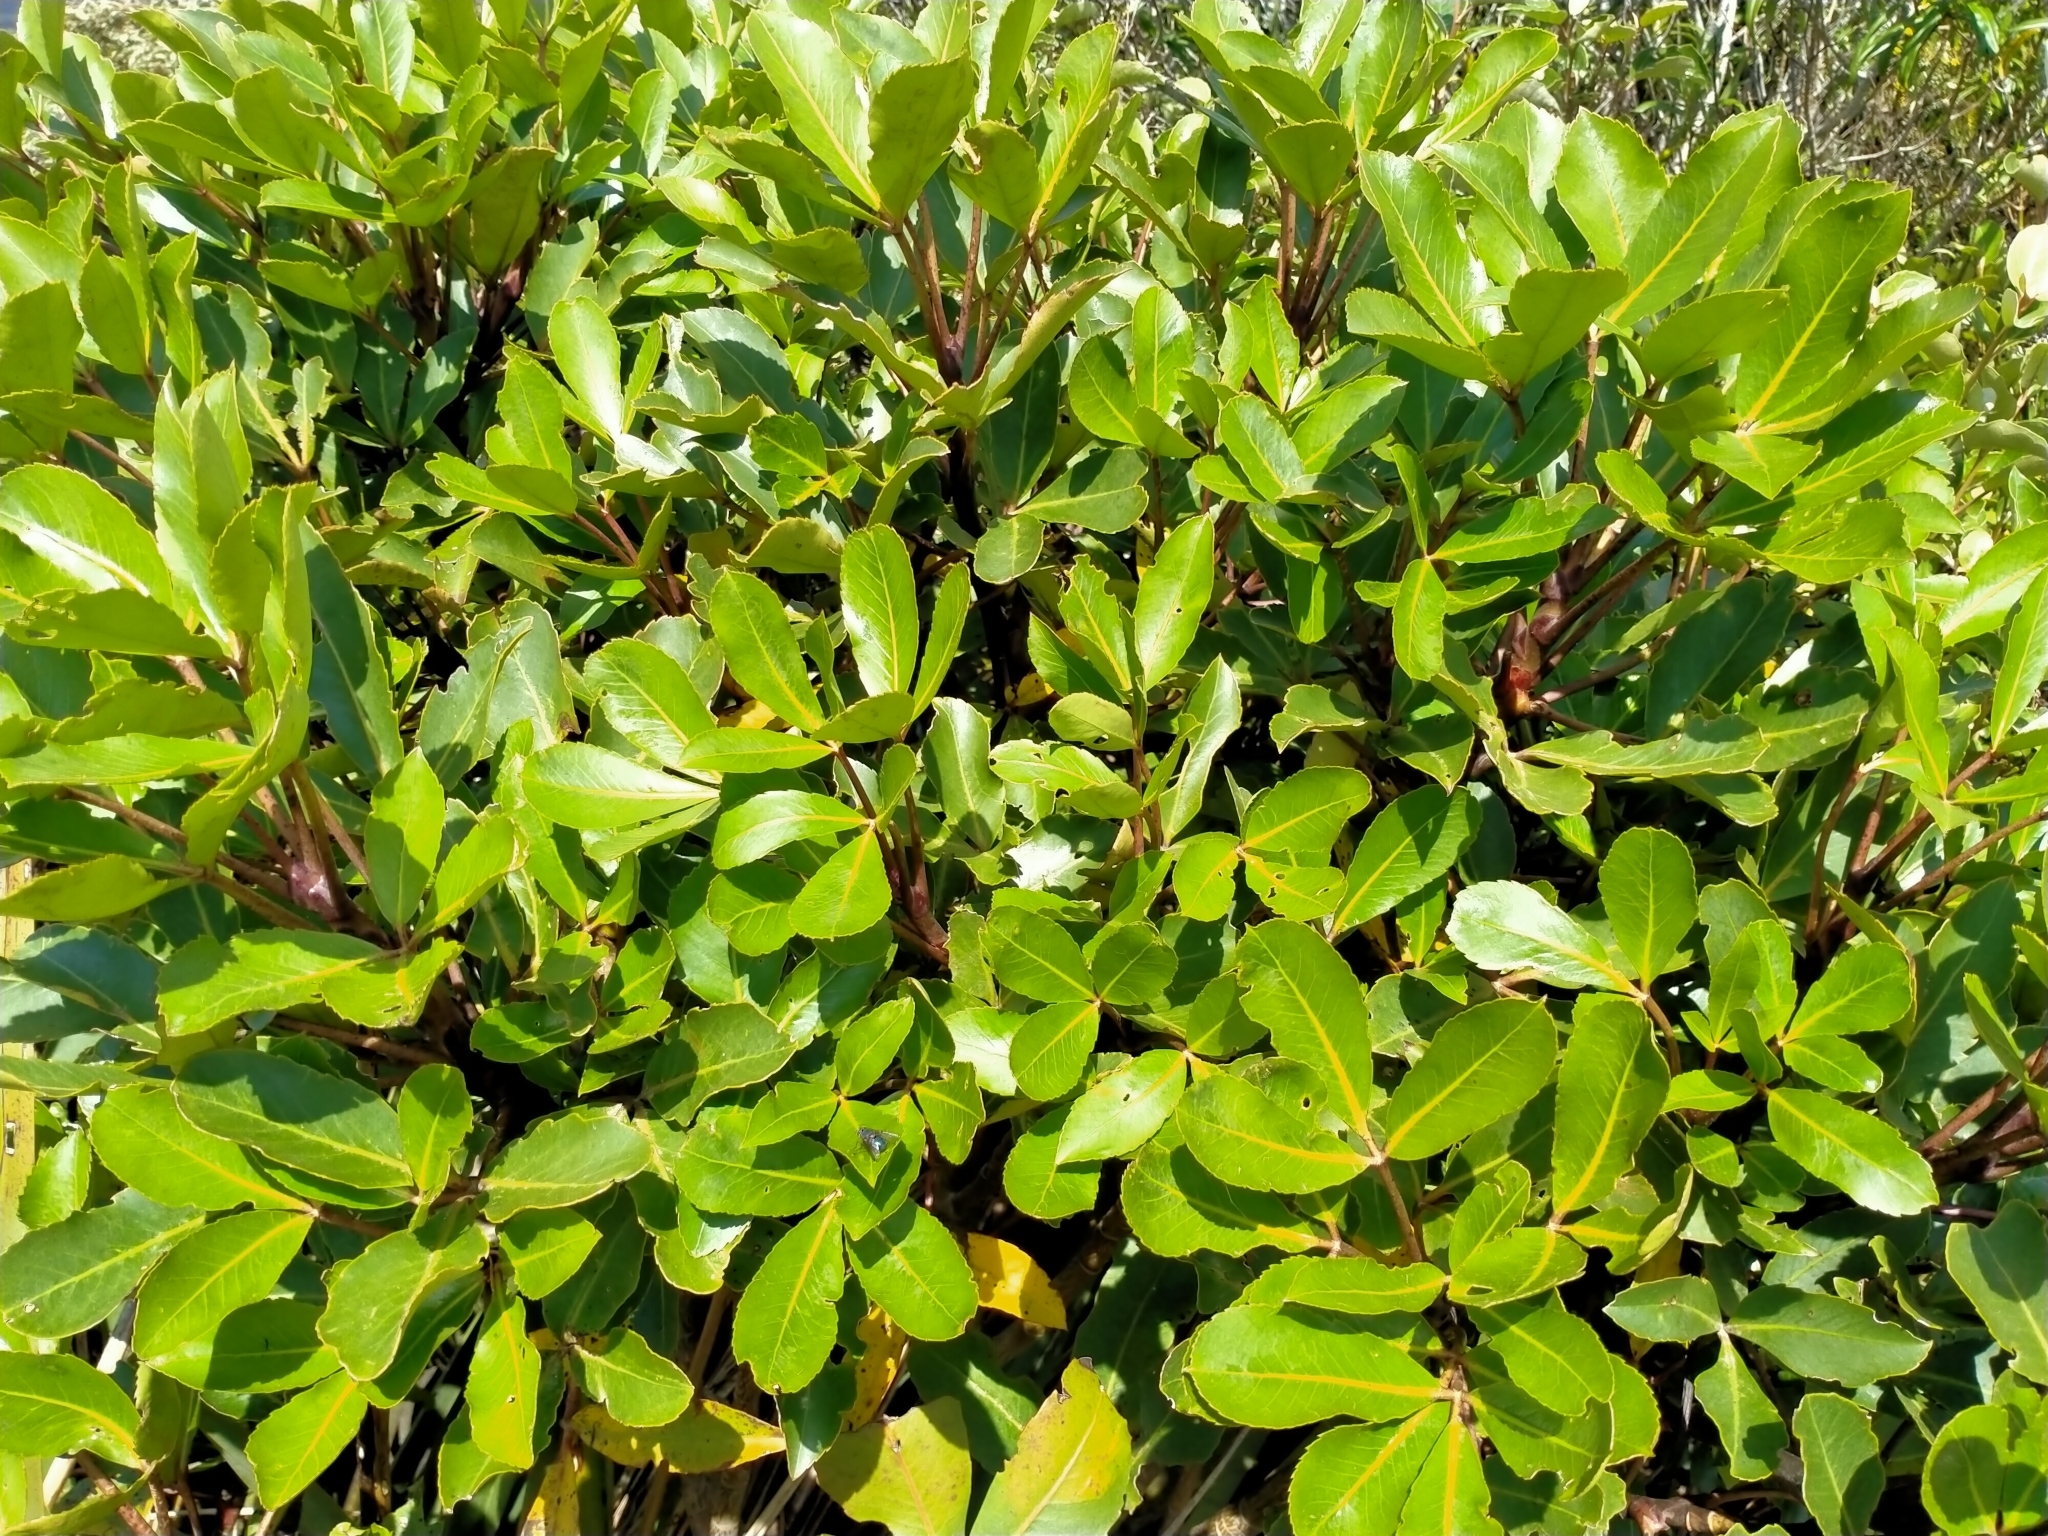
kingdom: Plantae
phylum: Tracheophyta
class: Magnoliopsida
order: Apiales
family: Araliaceae
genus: Neopanax
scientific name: Neopanax colensoi
